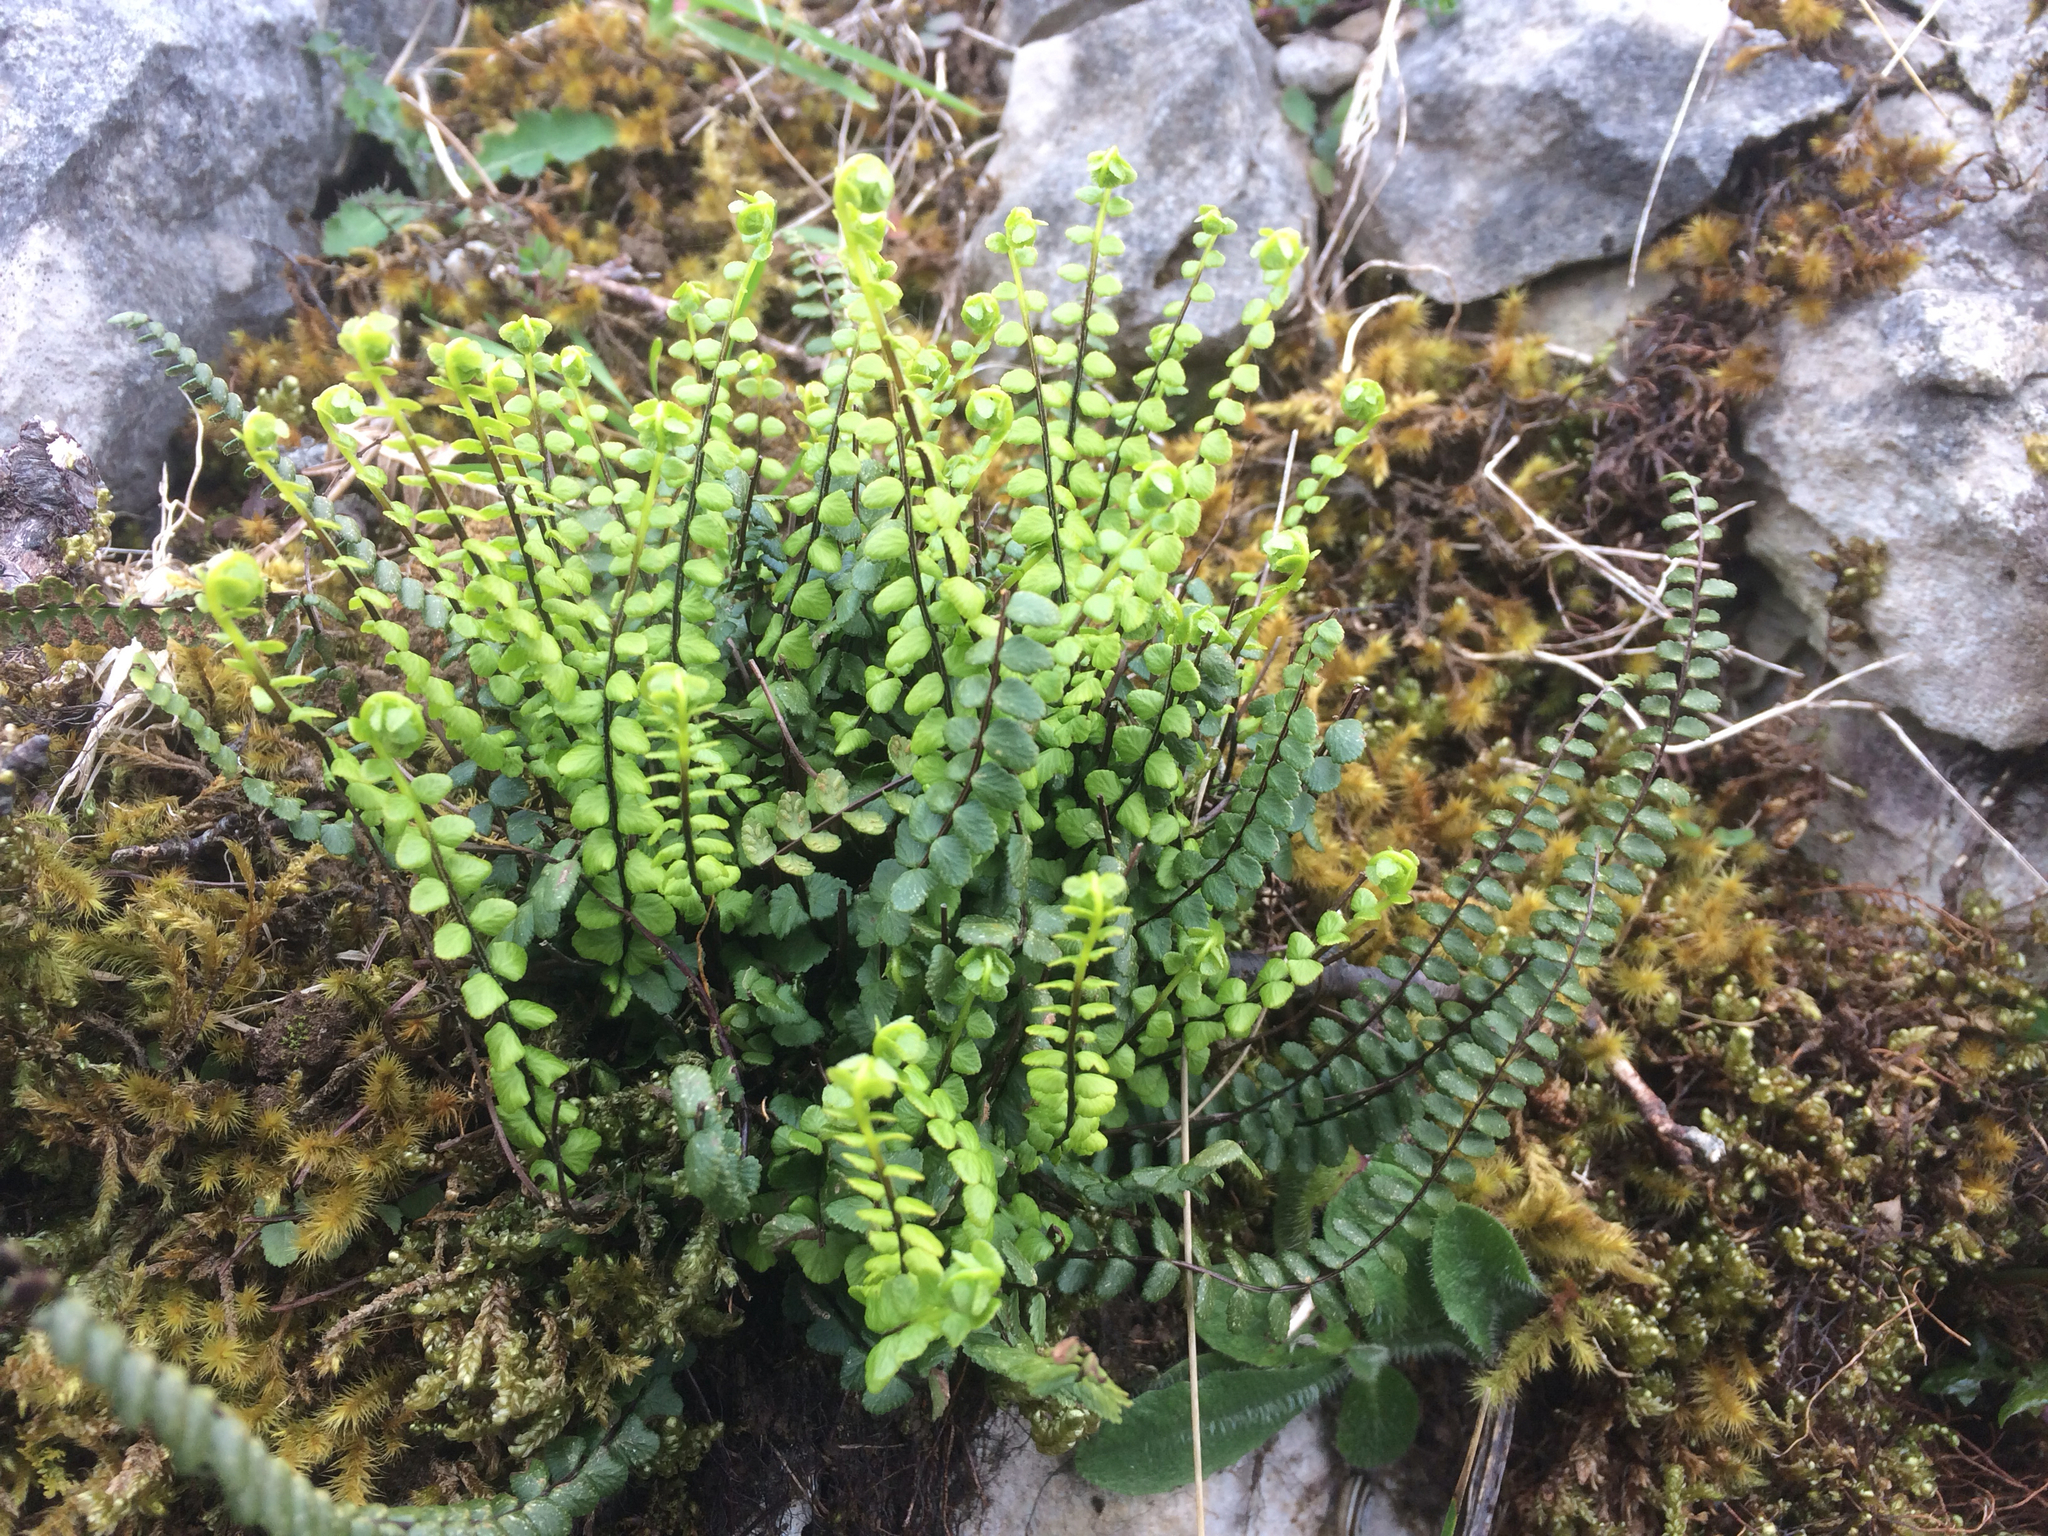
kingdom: Plantae
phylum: Tracheophyta
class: Polypodiopsida
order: Polypodiales
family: Aspleniaceae
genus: Asplenium
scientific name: Asplenium trichomanes
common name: Maidenhair spleenwort
